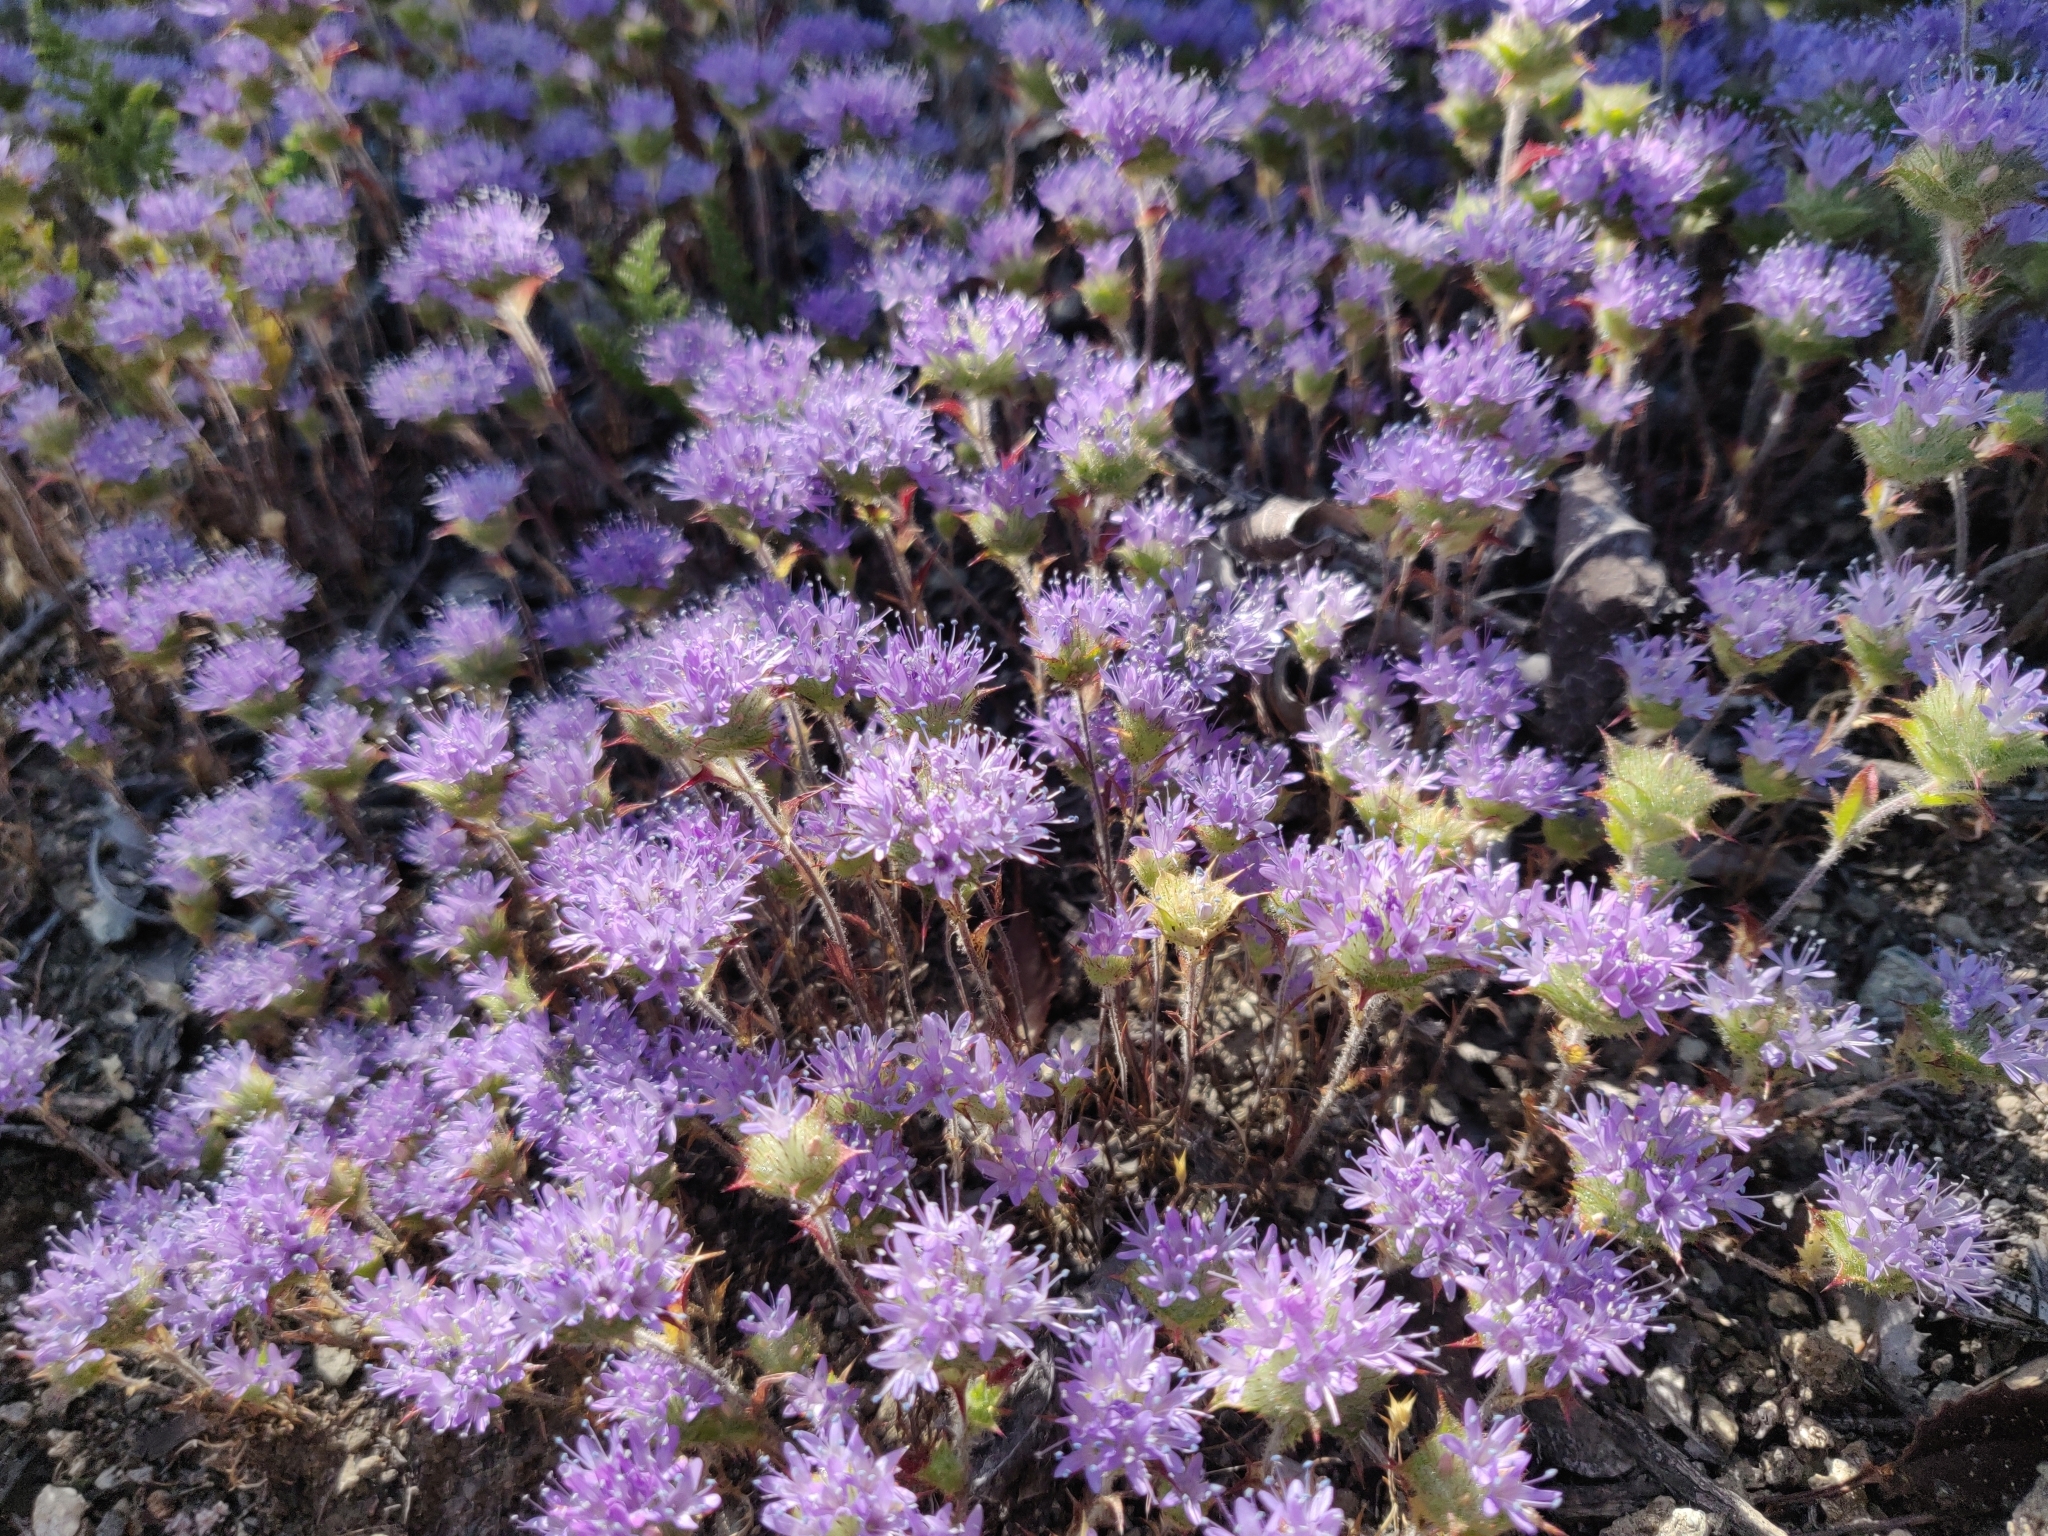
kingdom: Plantae
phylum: Tracheophyta
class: Magnoliopsida
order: Ericales
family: Polemoniaceae
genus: Navarretia
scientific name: Navarretia heterodoxa
